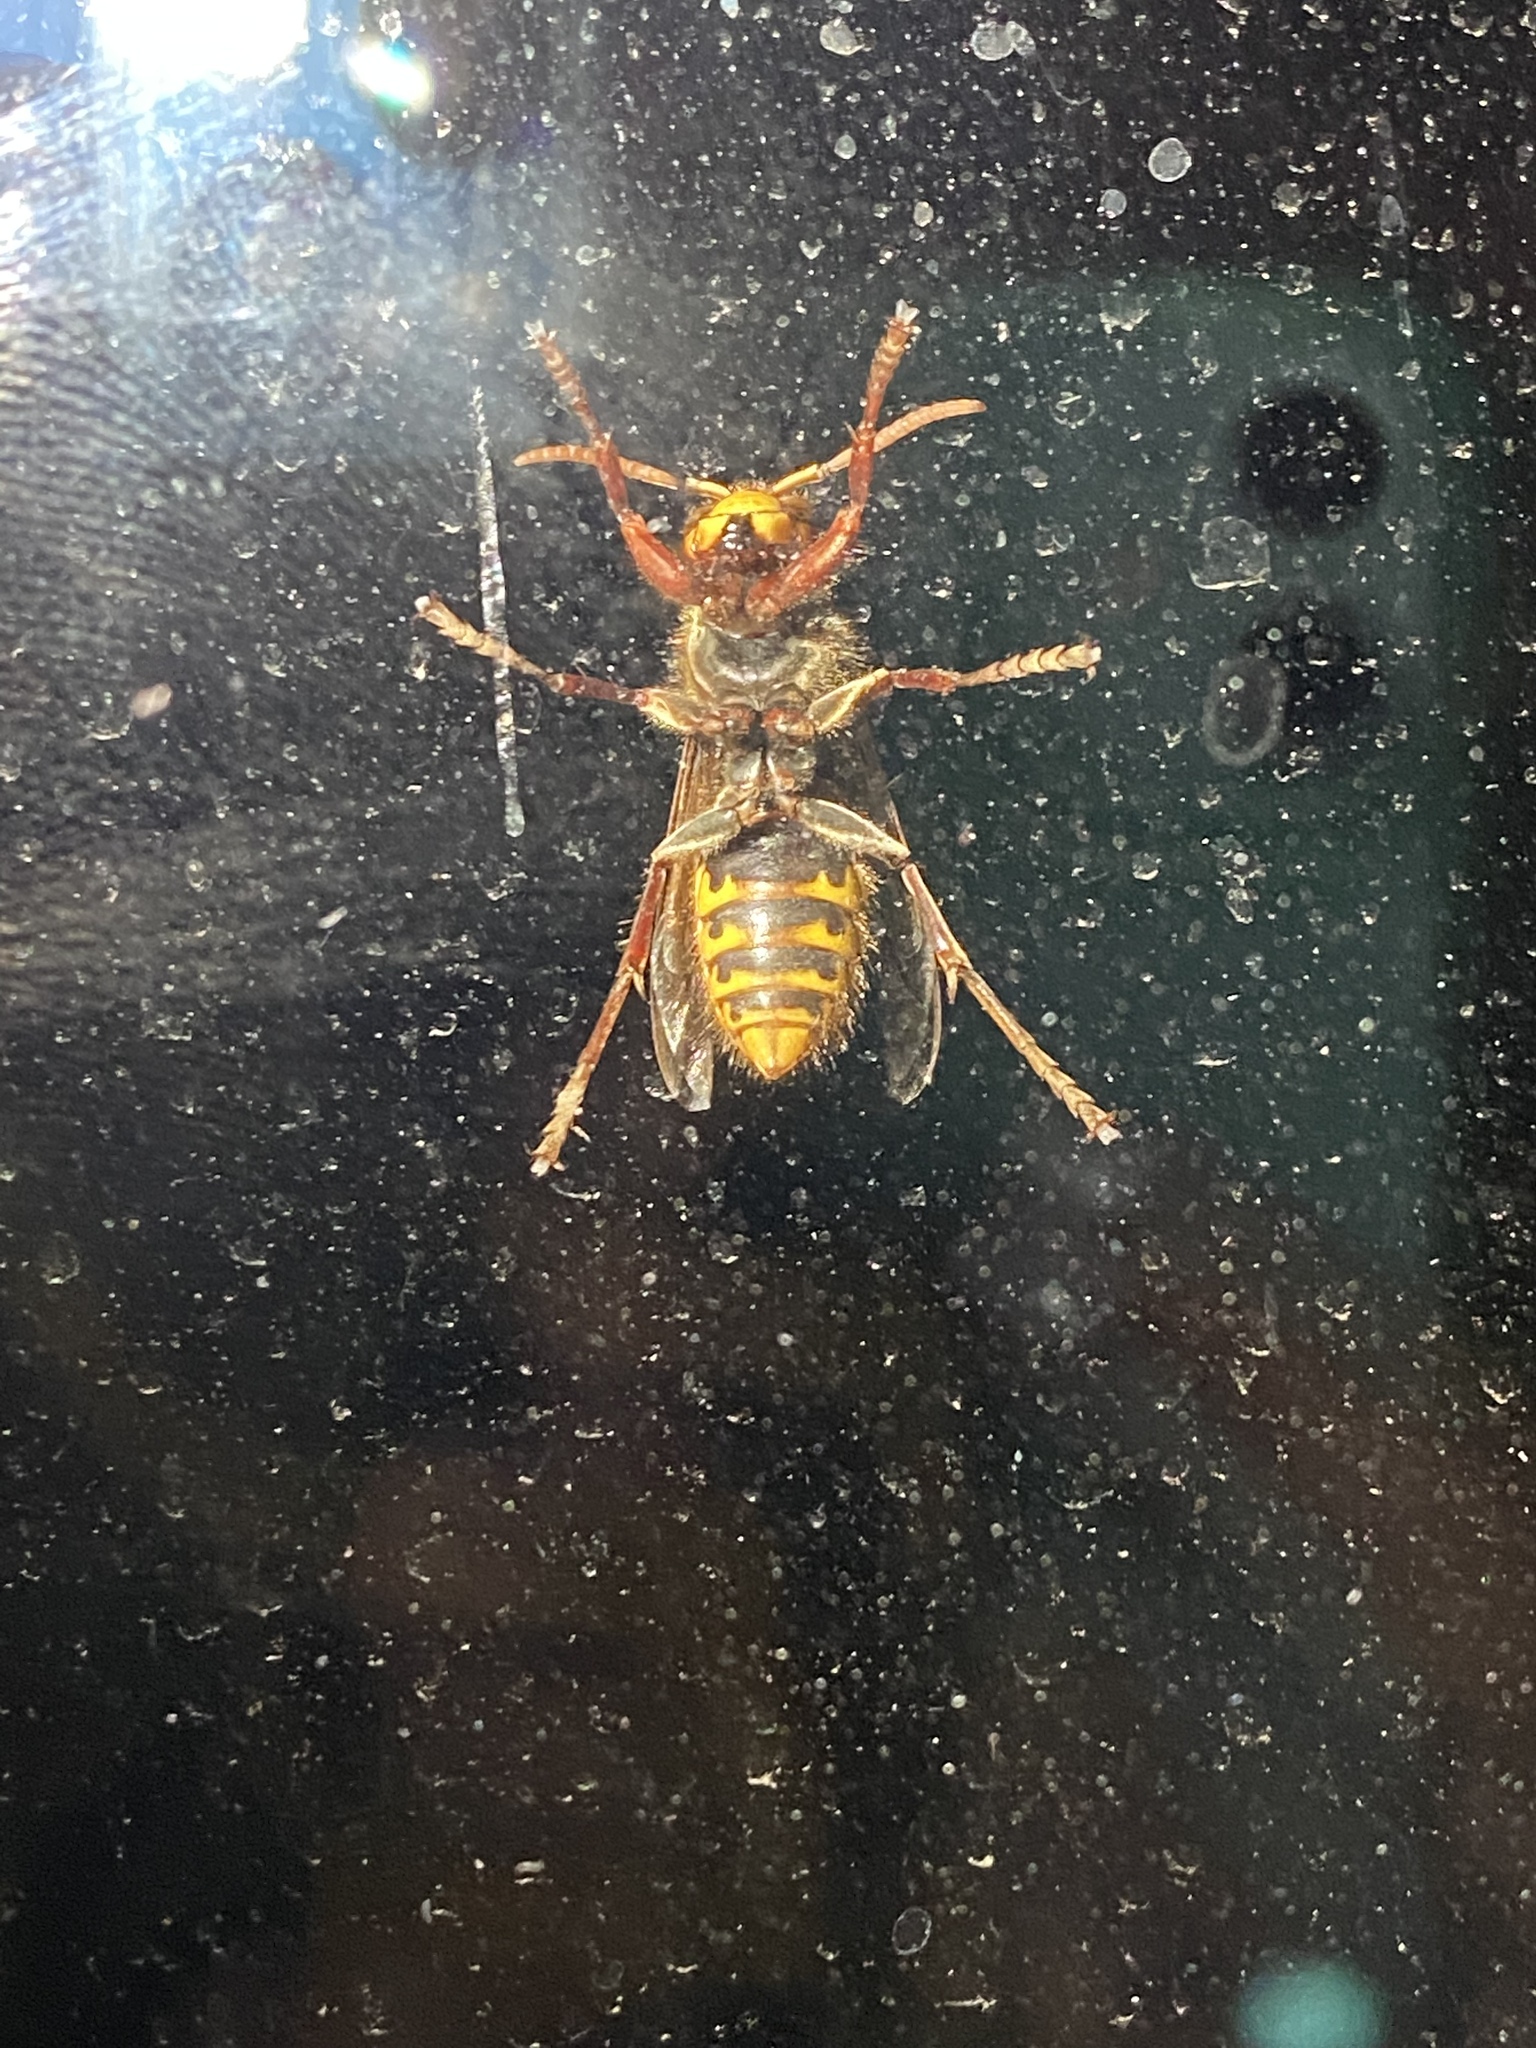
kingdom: Animalia
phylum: Arthropoda
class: Insecta
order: Hymenoptera
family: Vespidae
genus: Vespa
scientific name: Vespa crabro
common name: Hornet
